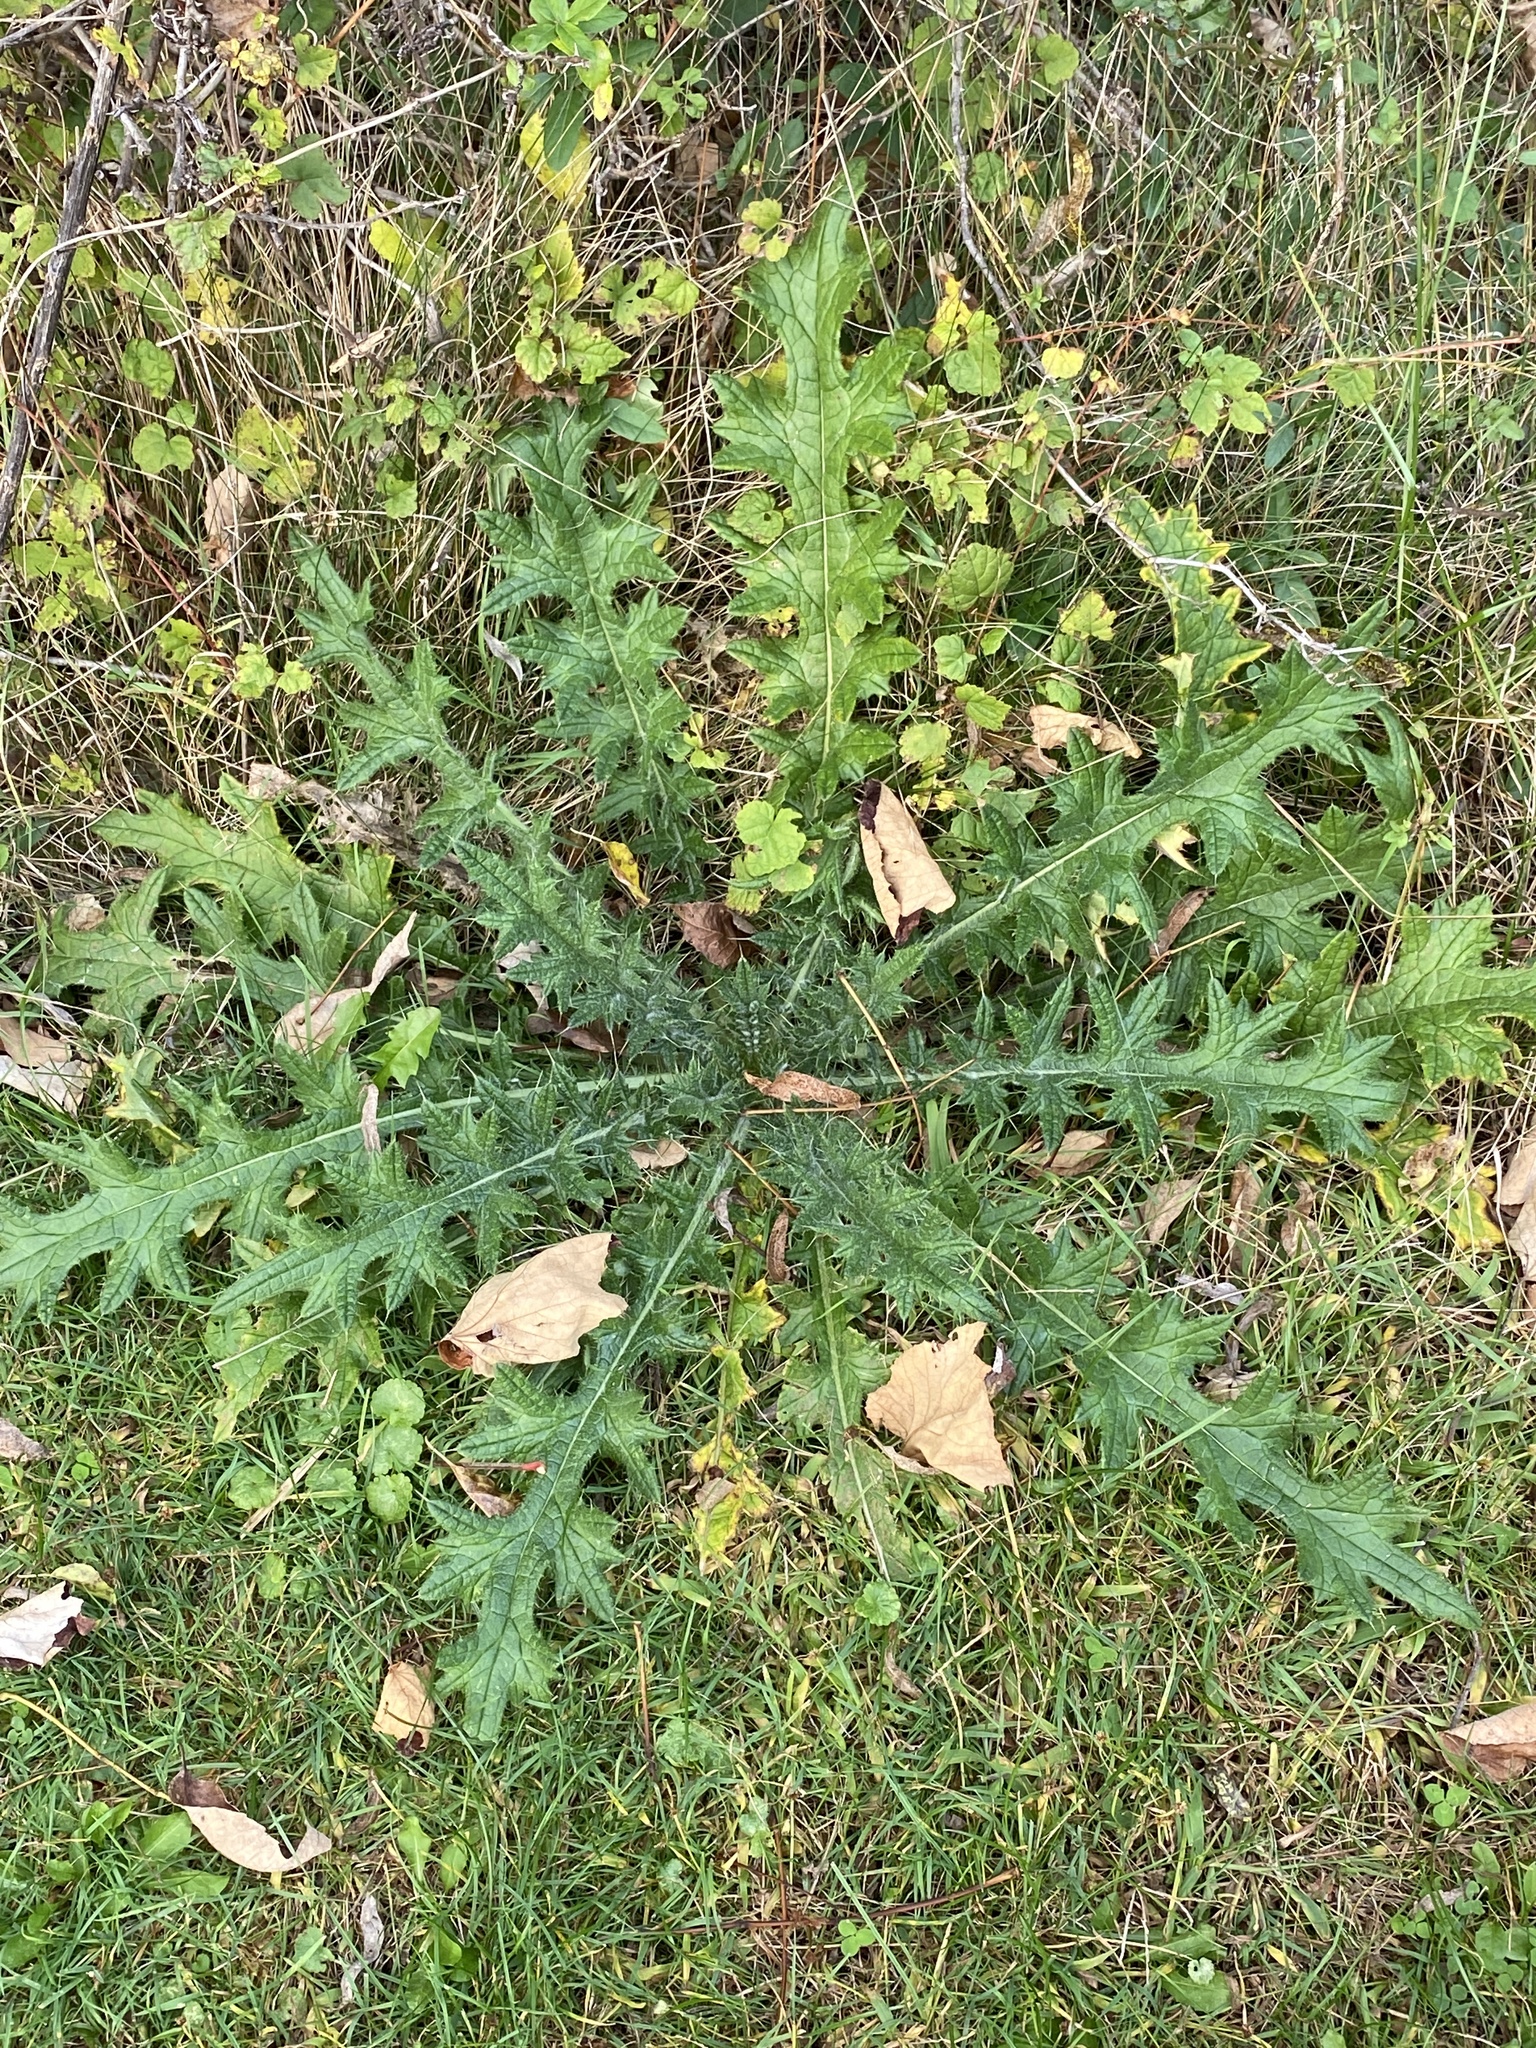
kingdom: Plantae
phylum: Tracheophyta
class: Magnoliopsida
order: Asterales
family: Asteraceae
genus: Cirsium
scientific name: Cirsium vulgare
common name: Bull thistle
